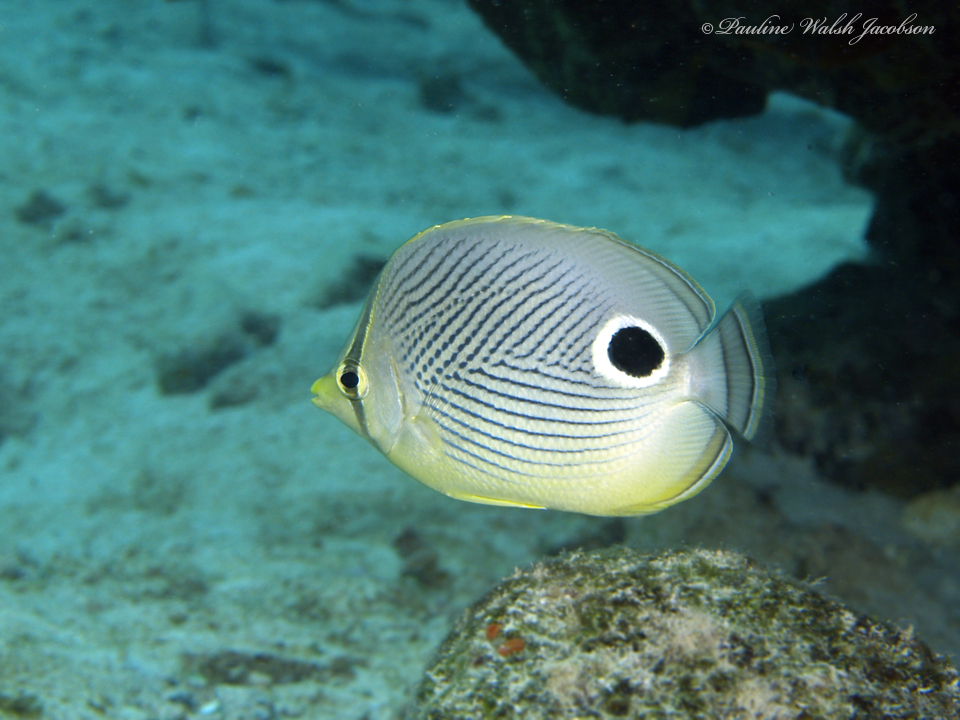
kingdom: Animalia
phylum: Chordata
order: Perciformes
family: Chaetodontidae
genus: Chaetodon
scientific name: Chaetodon capistratus
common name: Kete
